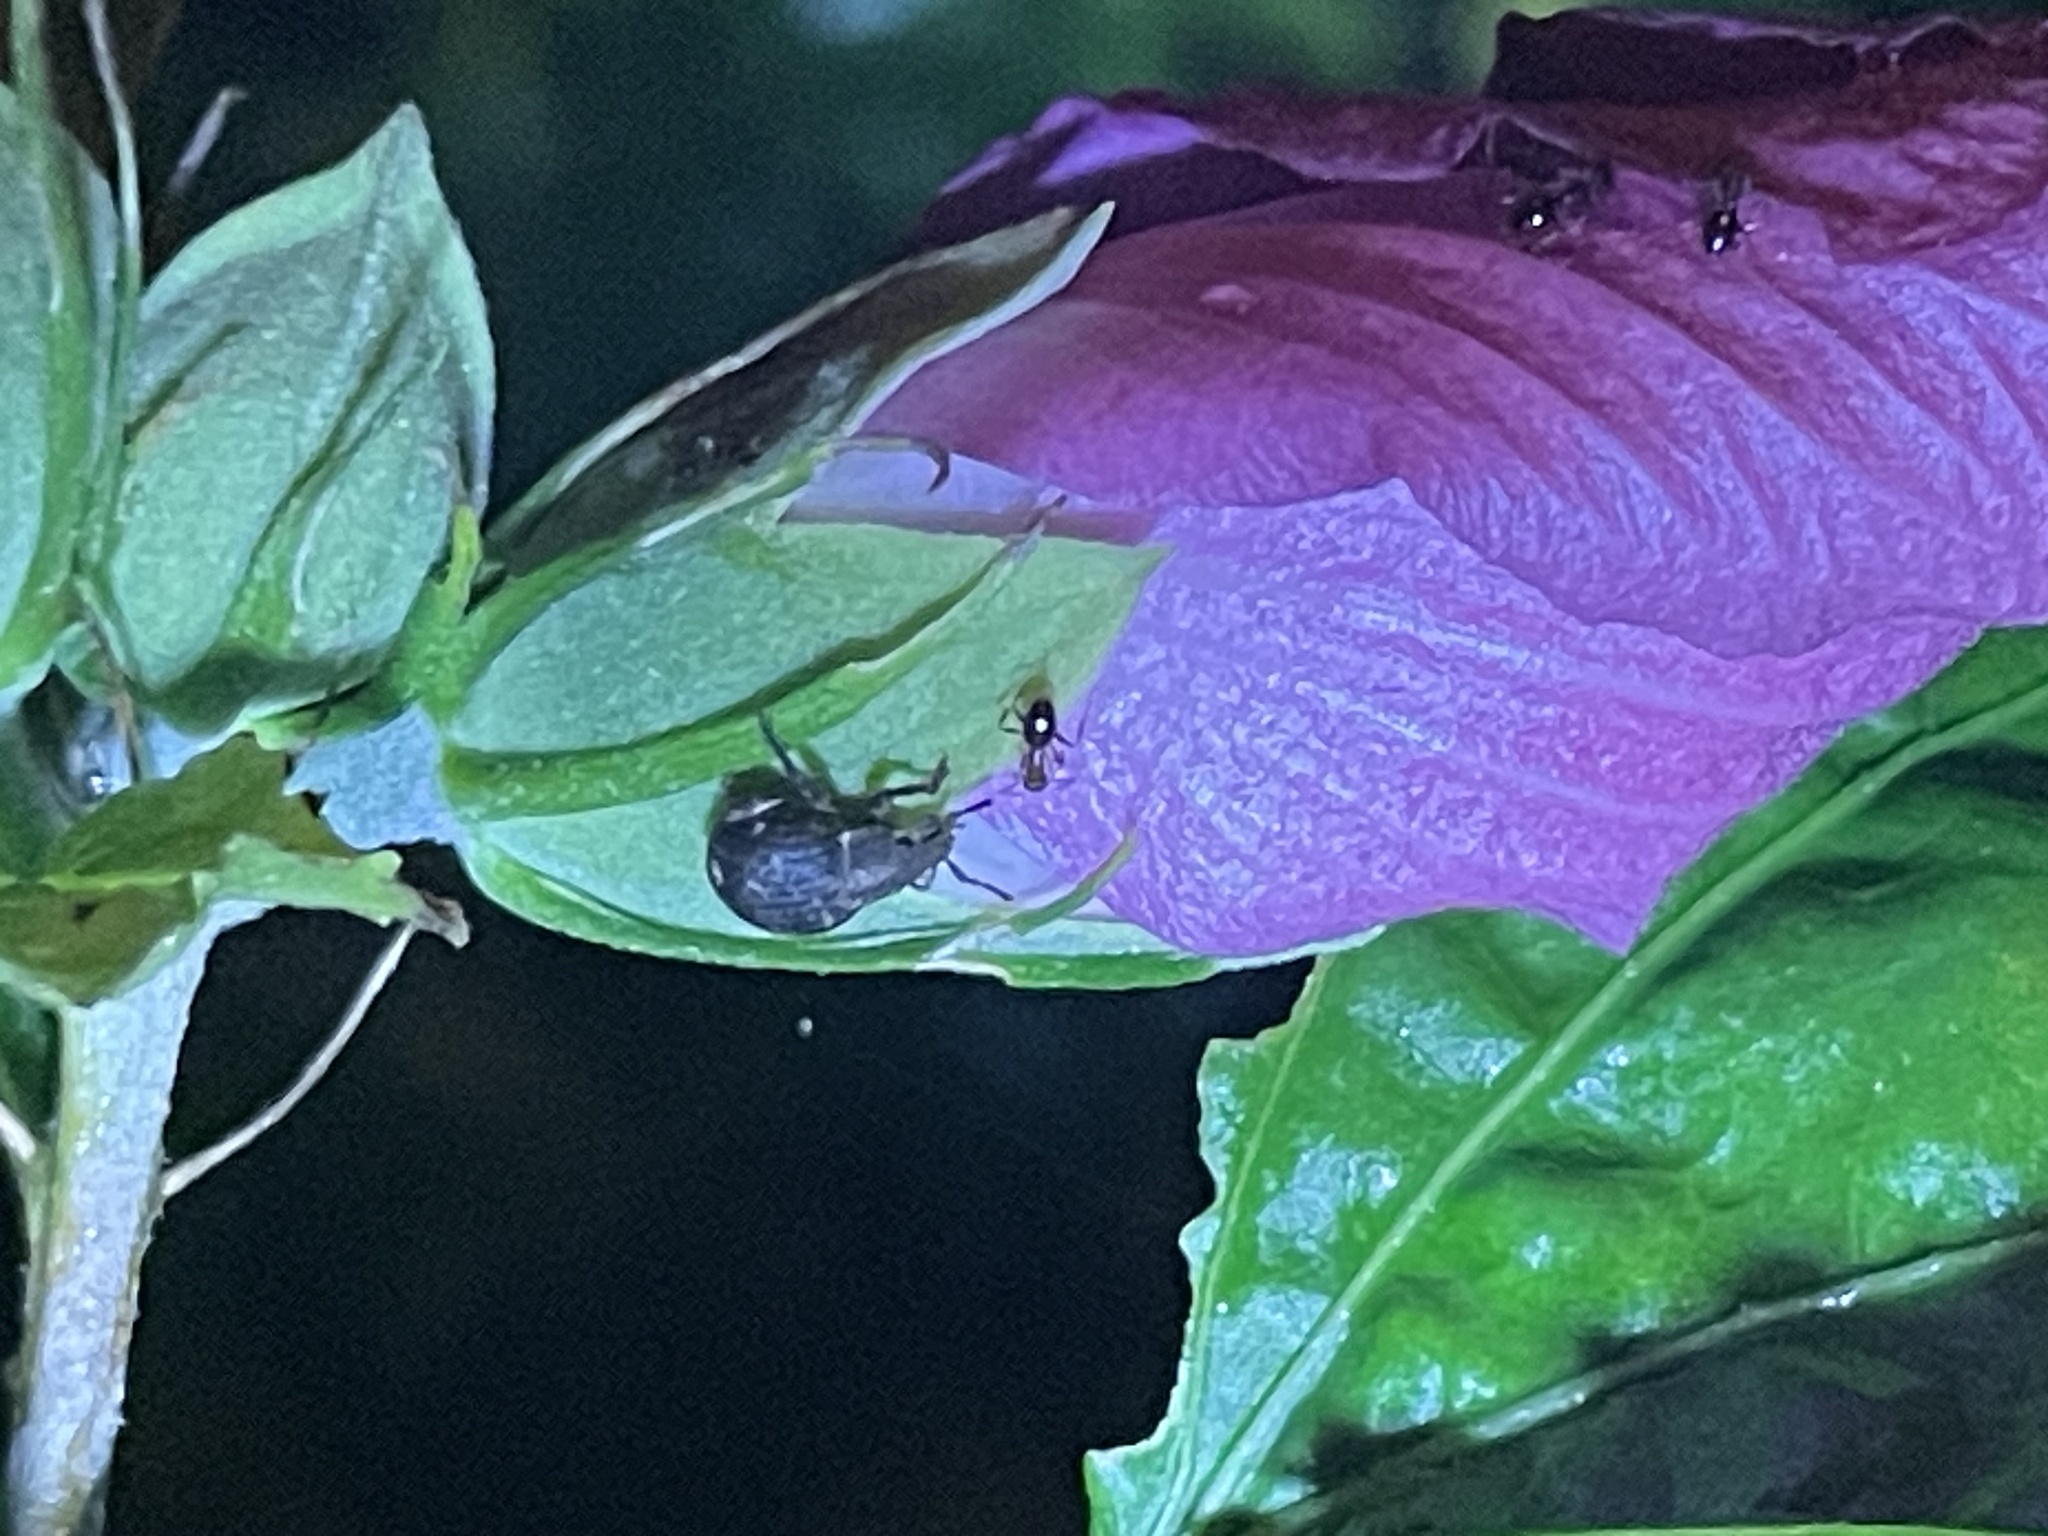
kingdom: Animalia
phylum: Arthropoda
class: Insecta
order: Coleoptera
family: Curculionidae
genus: Pseudocneorhinus
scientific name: Pseudocneorhinus bifasciatus
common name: Two-banded japanese weevil
